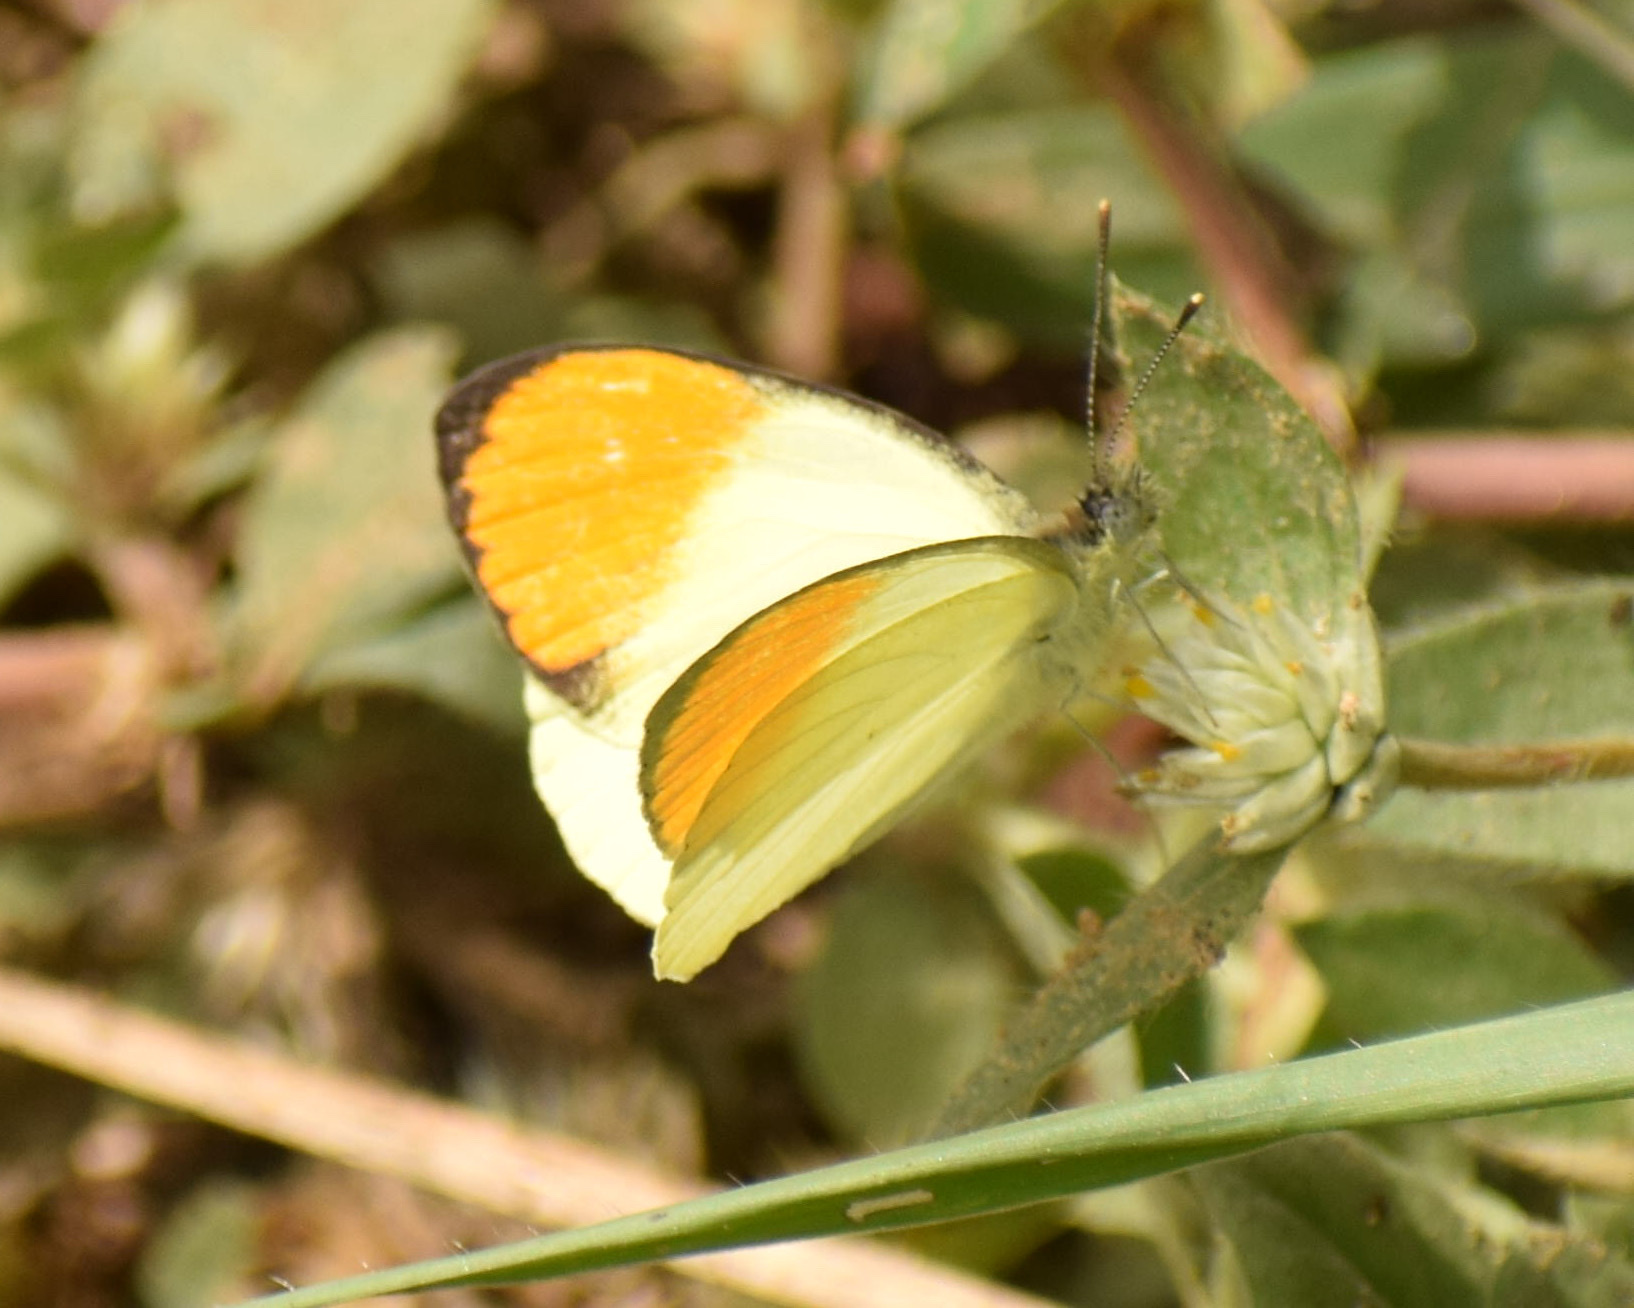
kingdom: Animalia
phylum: Arthropoda
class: Insecta
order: Lepidoptera
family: Pieridae
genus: Colotis
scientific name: Colotis auxo
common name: Sulphur orange tip
